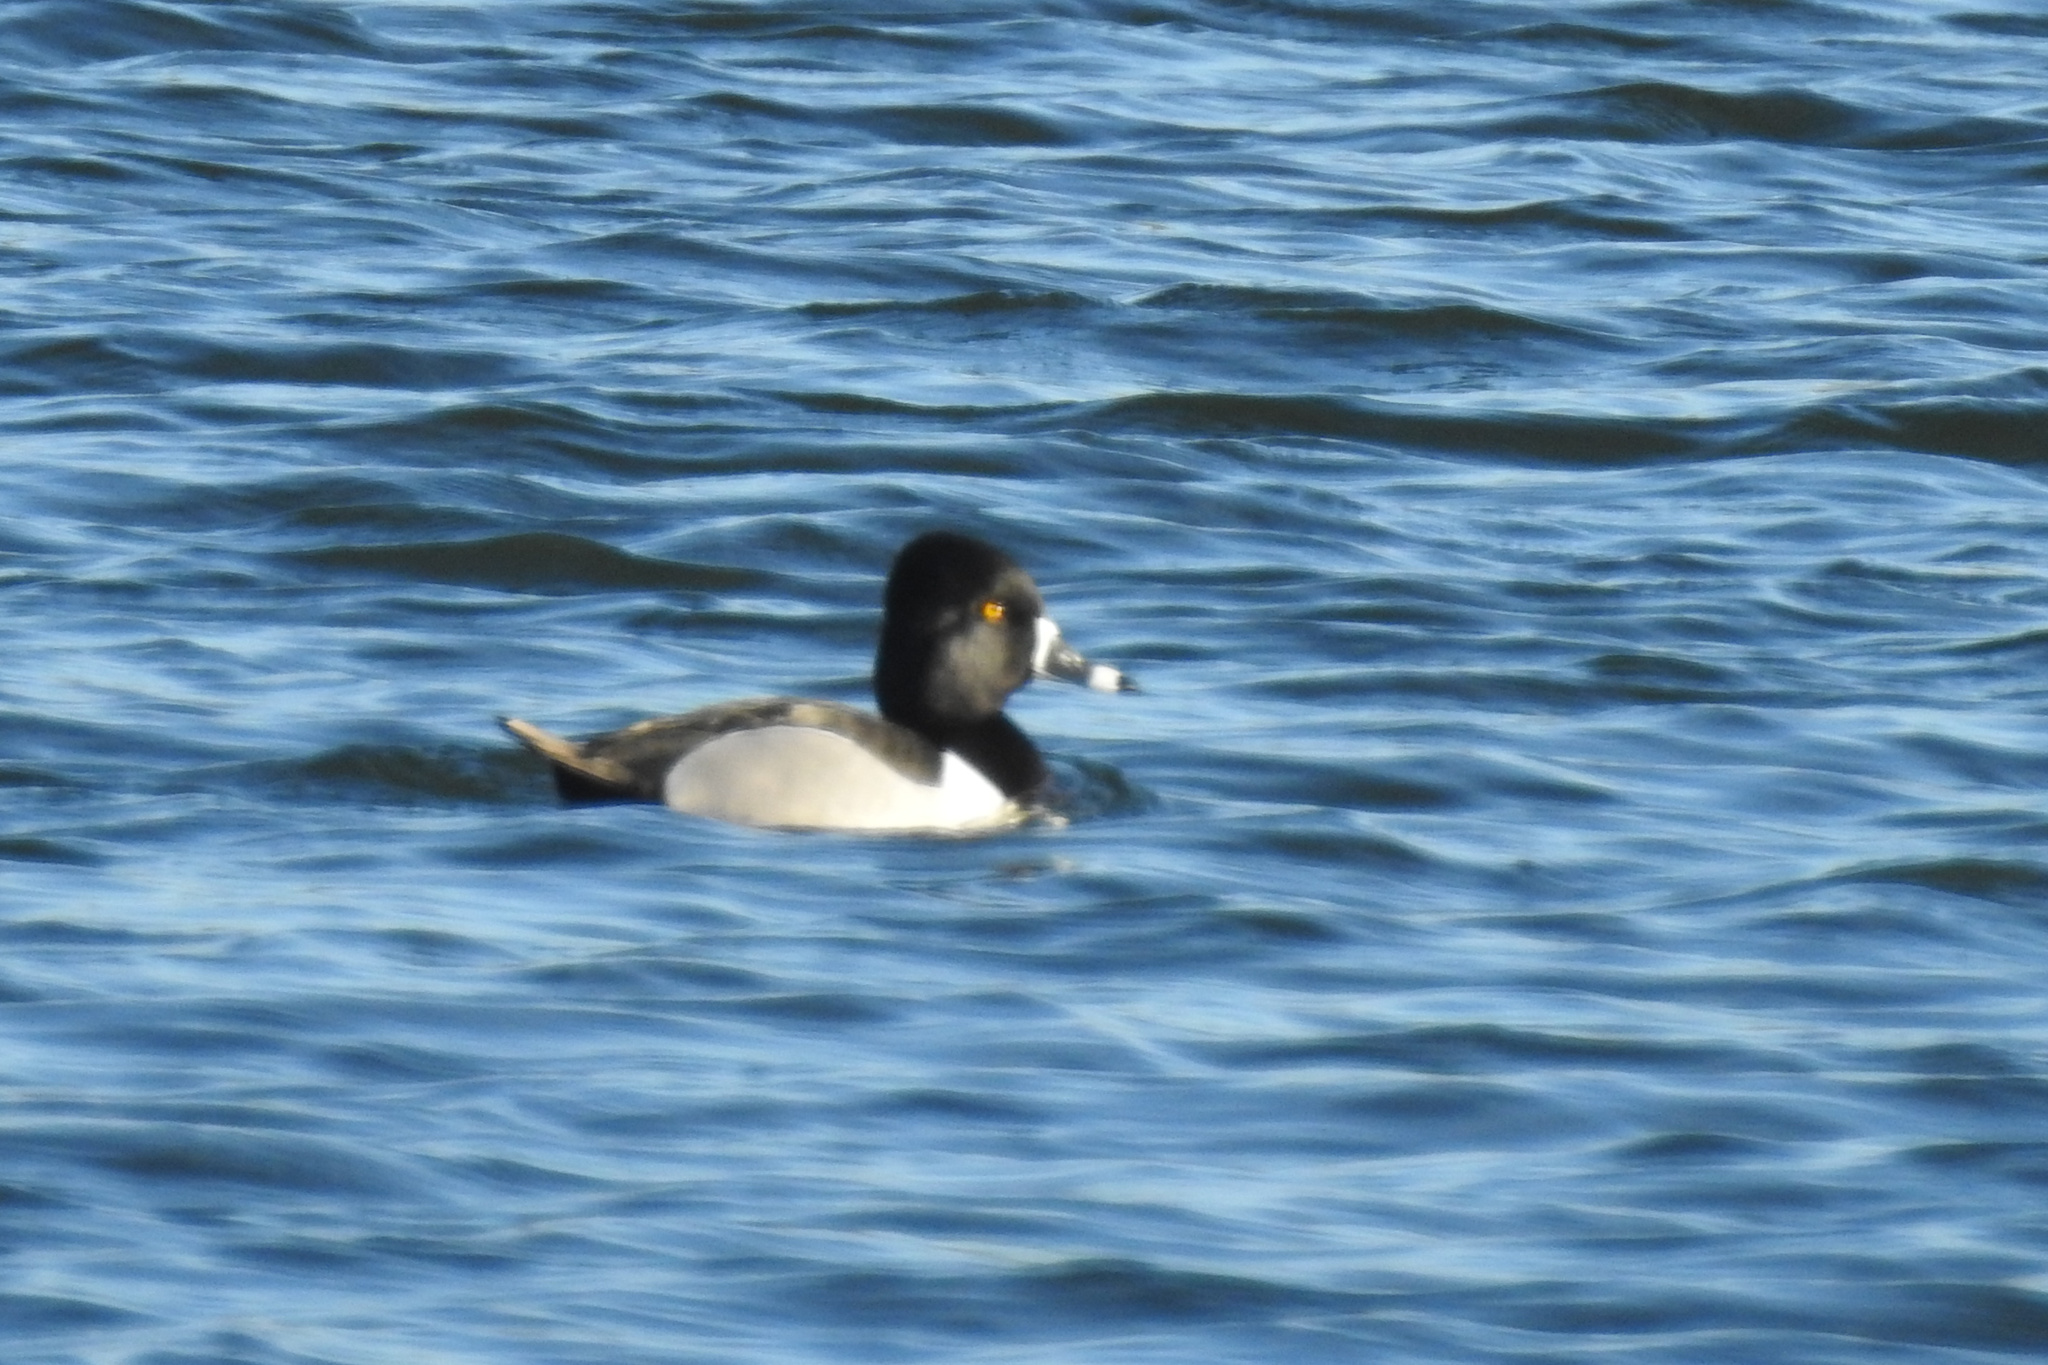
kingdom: Animalia
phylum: Chordata
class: Aves
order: Anseriformes
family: Anatidae
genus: Aythya
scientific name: Aythya collaris
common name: Ring-necked duck
